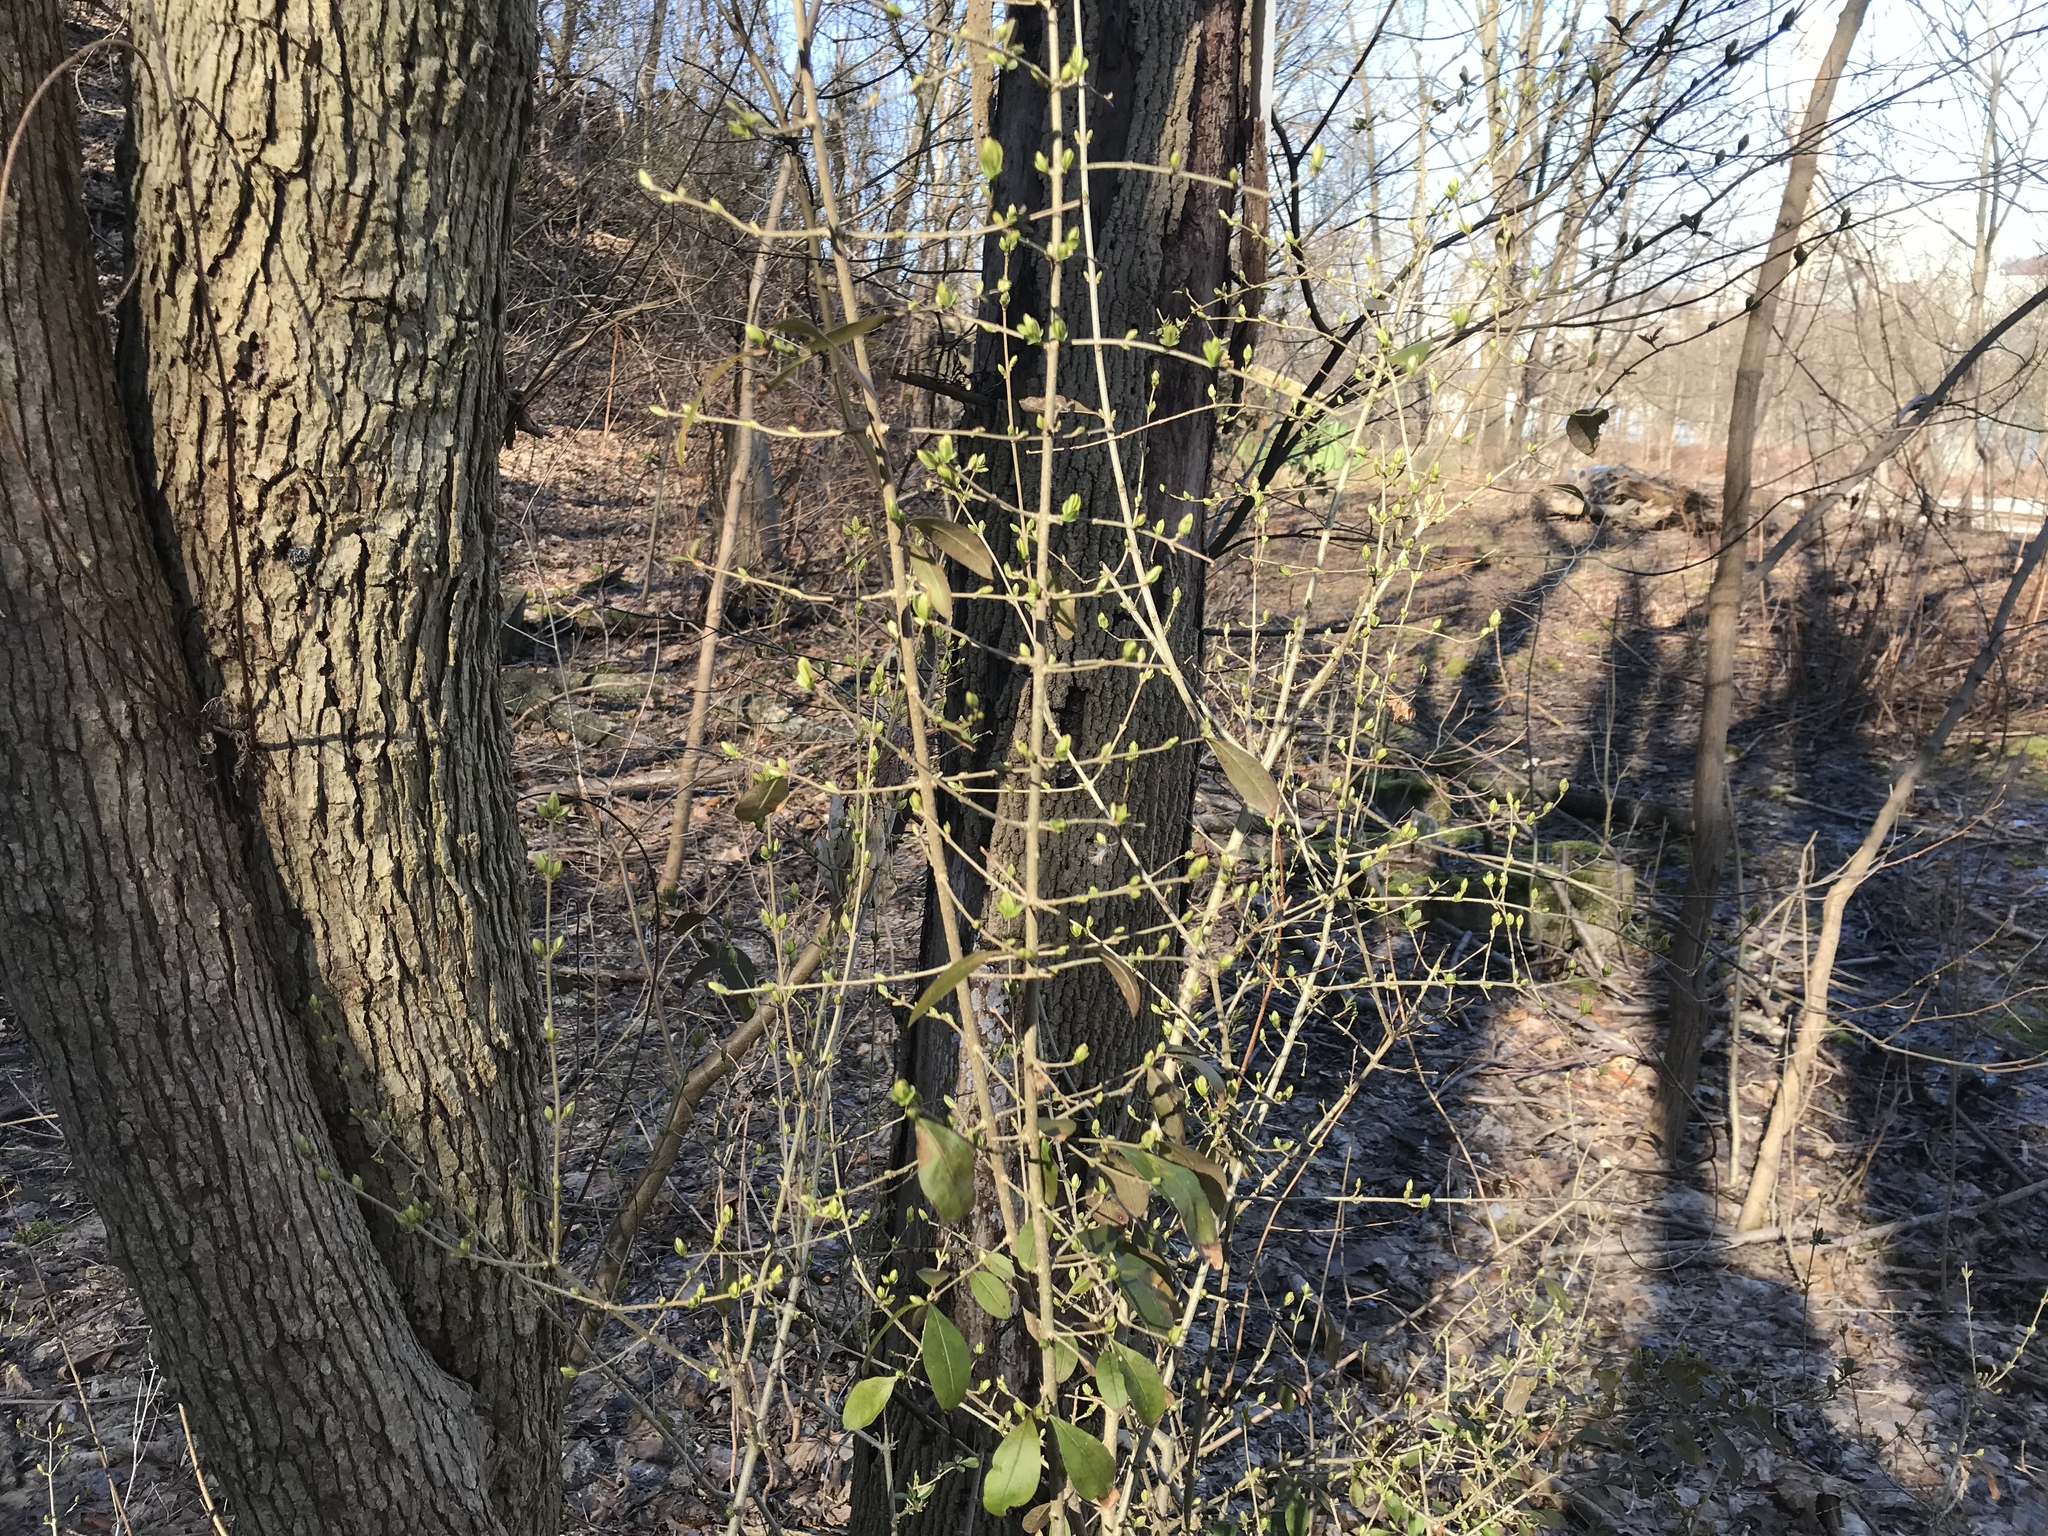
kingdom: Plantae
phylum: Tracheophyta
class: Magnoliopsida
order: Lamiales
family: Oleaceae
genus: Ligustrum
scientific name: Ligustrum obtusifolium
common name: Border privet
